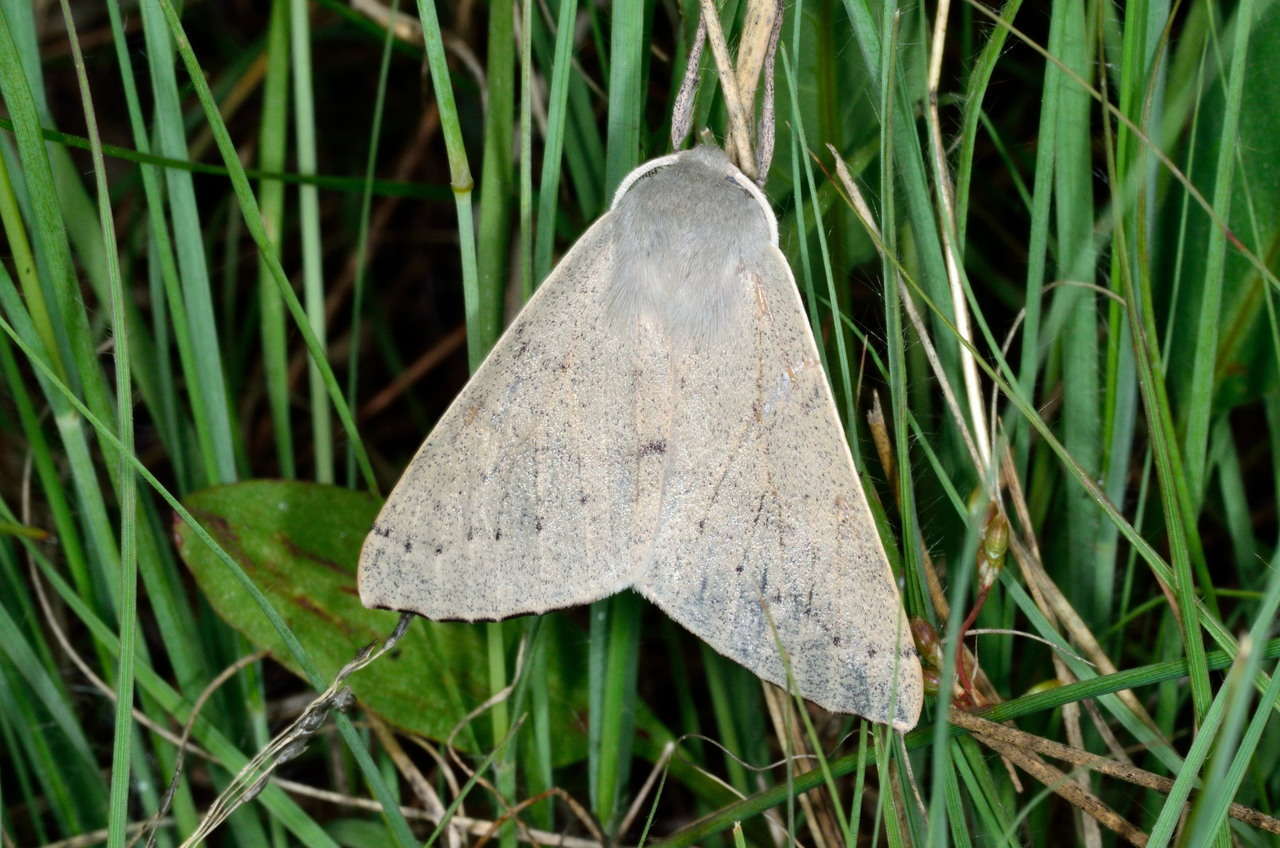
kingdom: Animalia
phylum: Arthropoda
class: Insecta
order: Lepidoptera
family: Geometridae
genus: Arhodia
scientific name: Arhodia lasiocamparia
